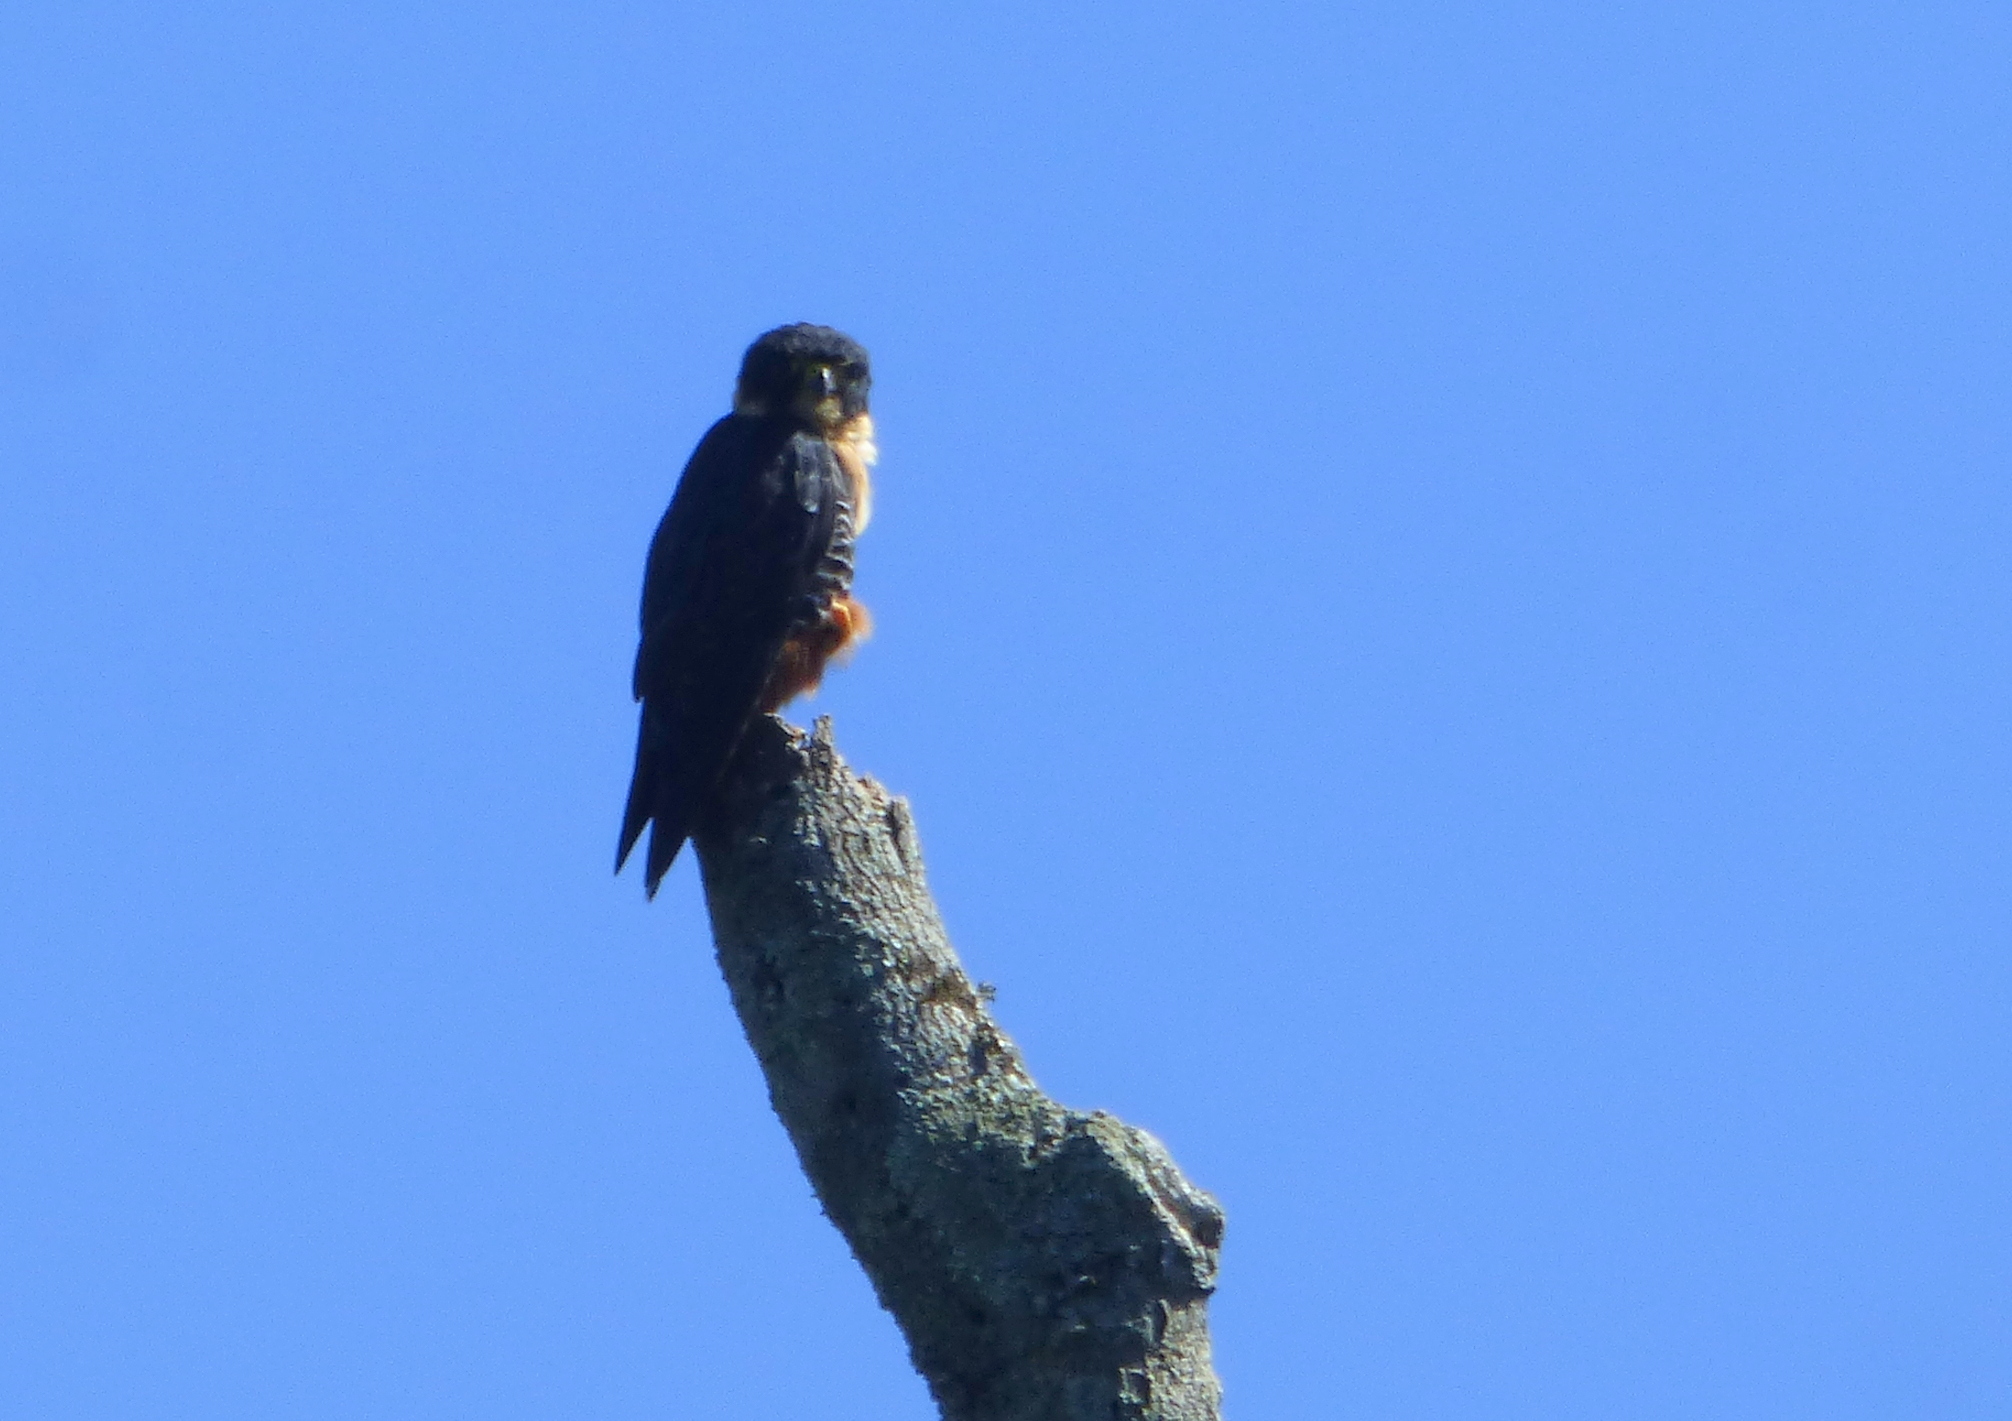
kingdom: Animalia
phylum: Chordata
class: Aves
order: Falconiformes
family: Falconidae
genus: Falco
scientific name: Falco rufigularis
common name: Bat falcon
